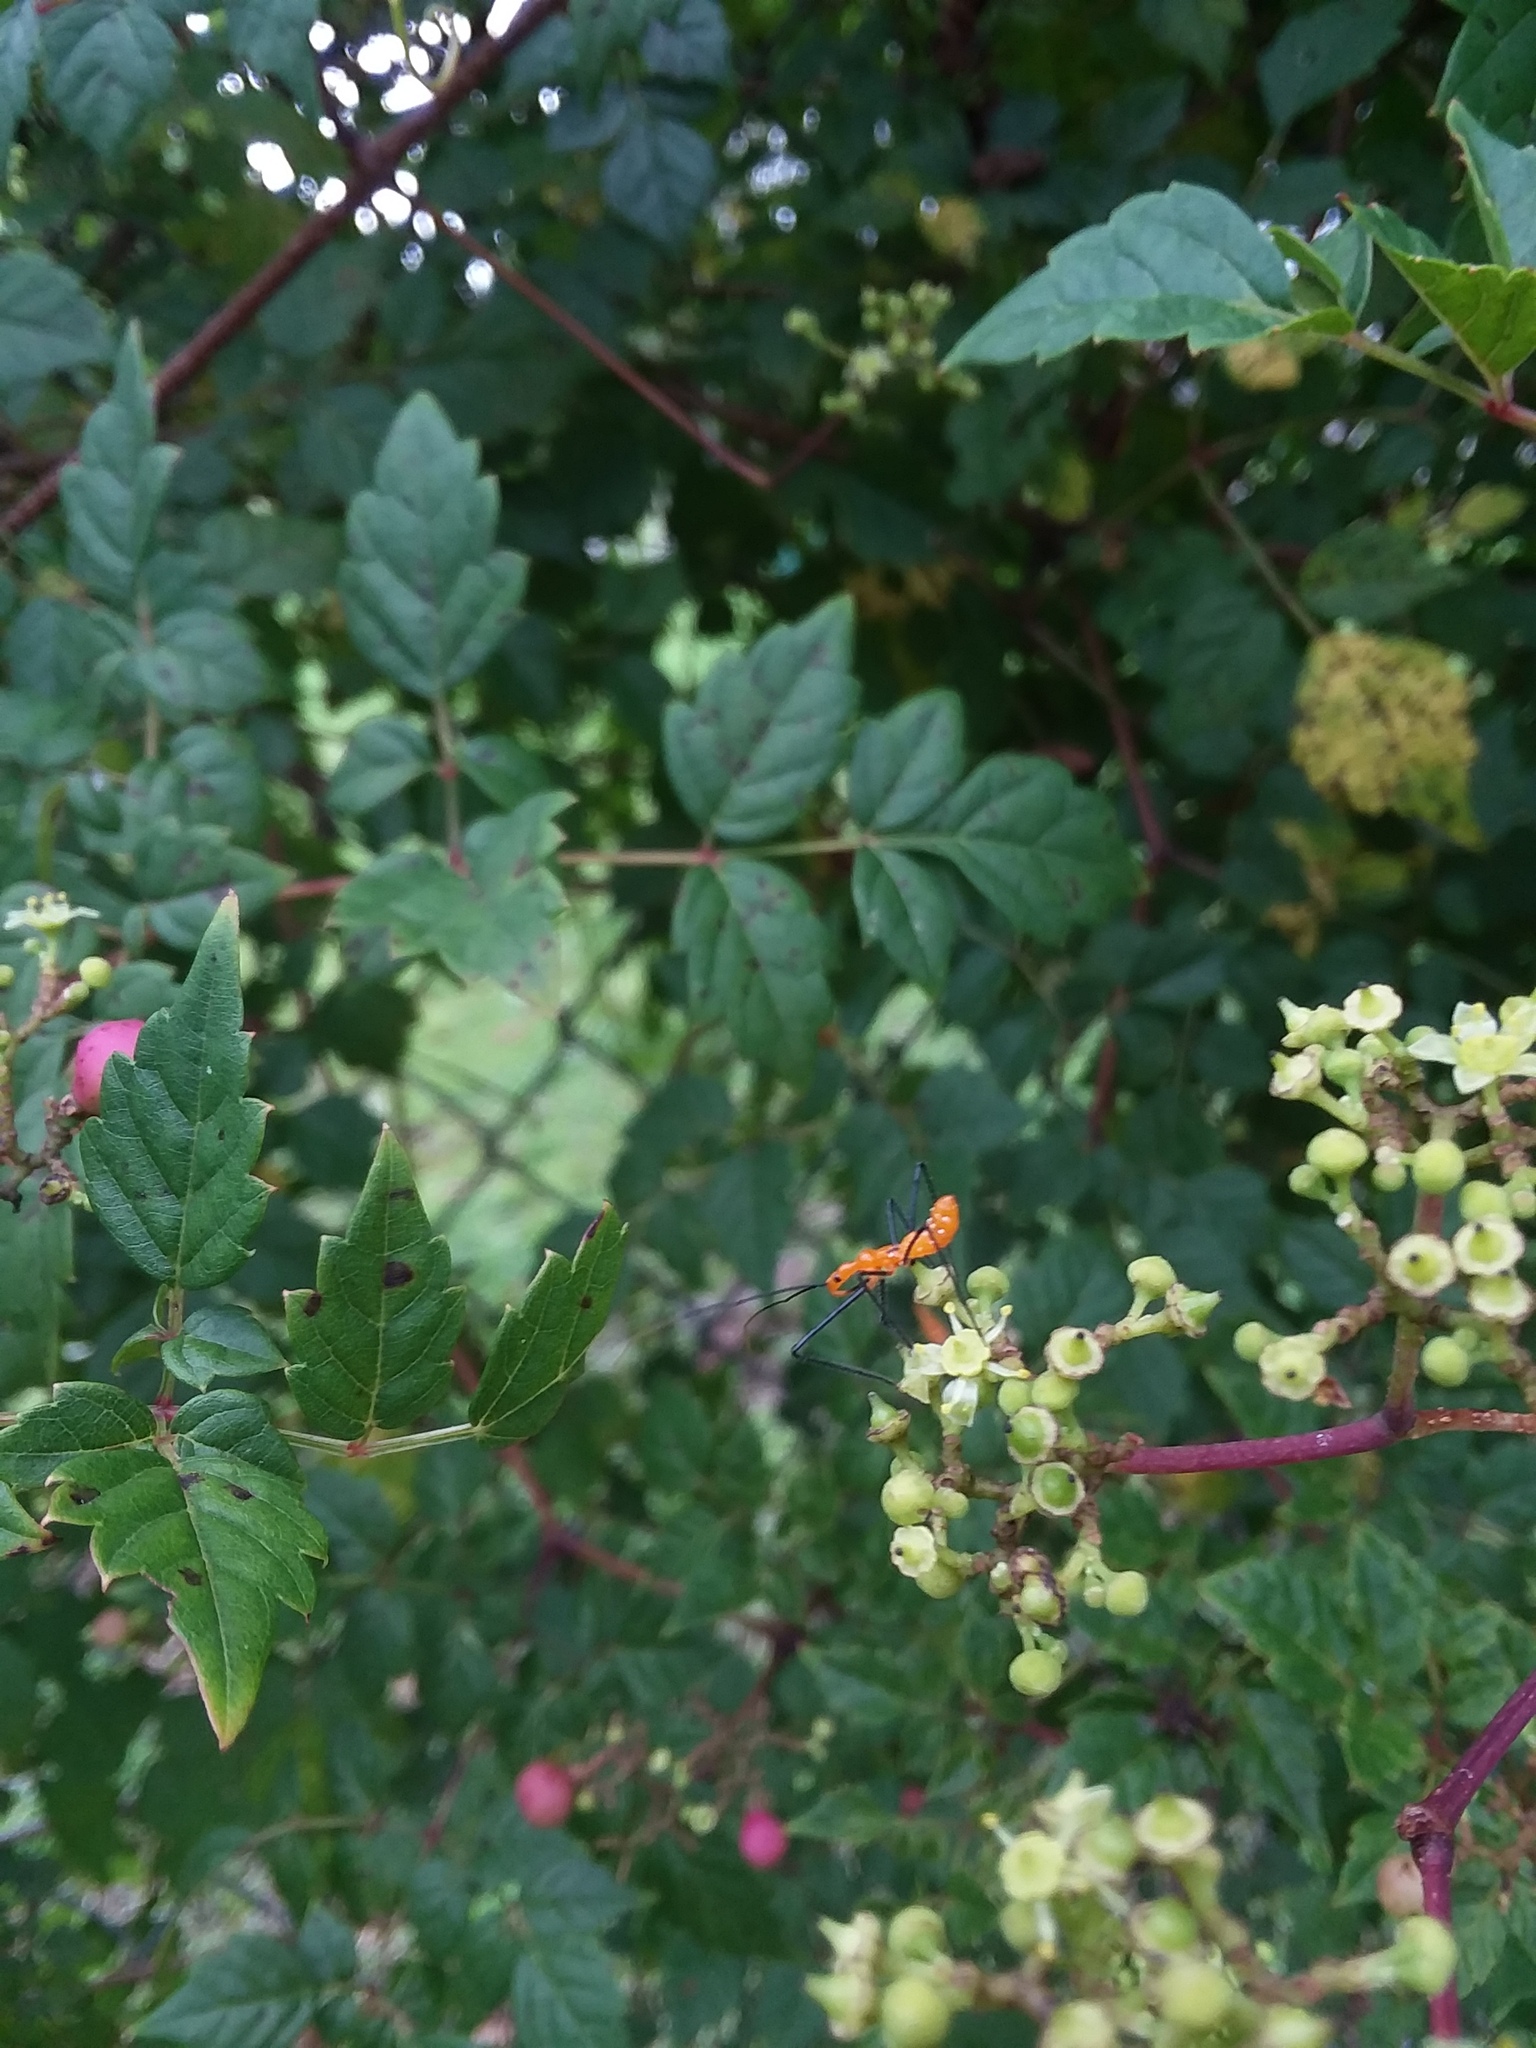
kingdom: Animalia
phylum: Arthropoda
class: Insecta
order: Hemiptera
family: Reduviidae
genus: Zelus
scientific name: Zelus longipes
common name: Milkweed assassin bug
